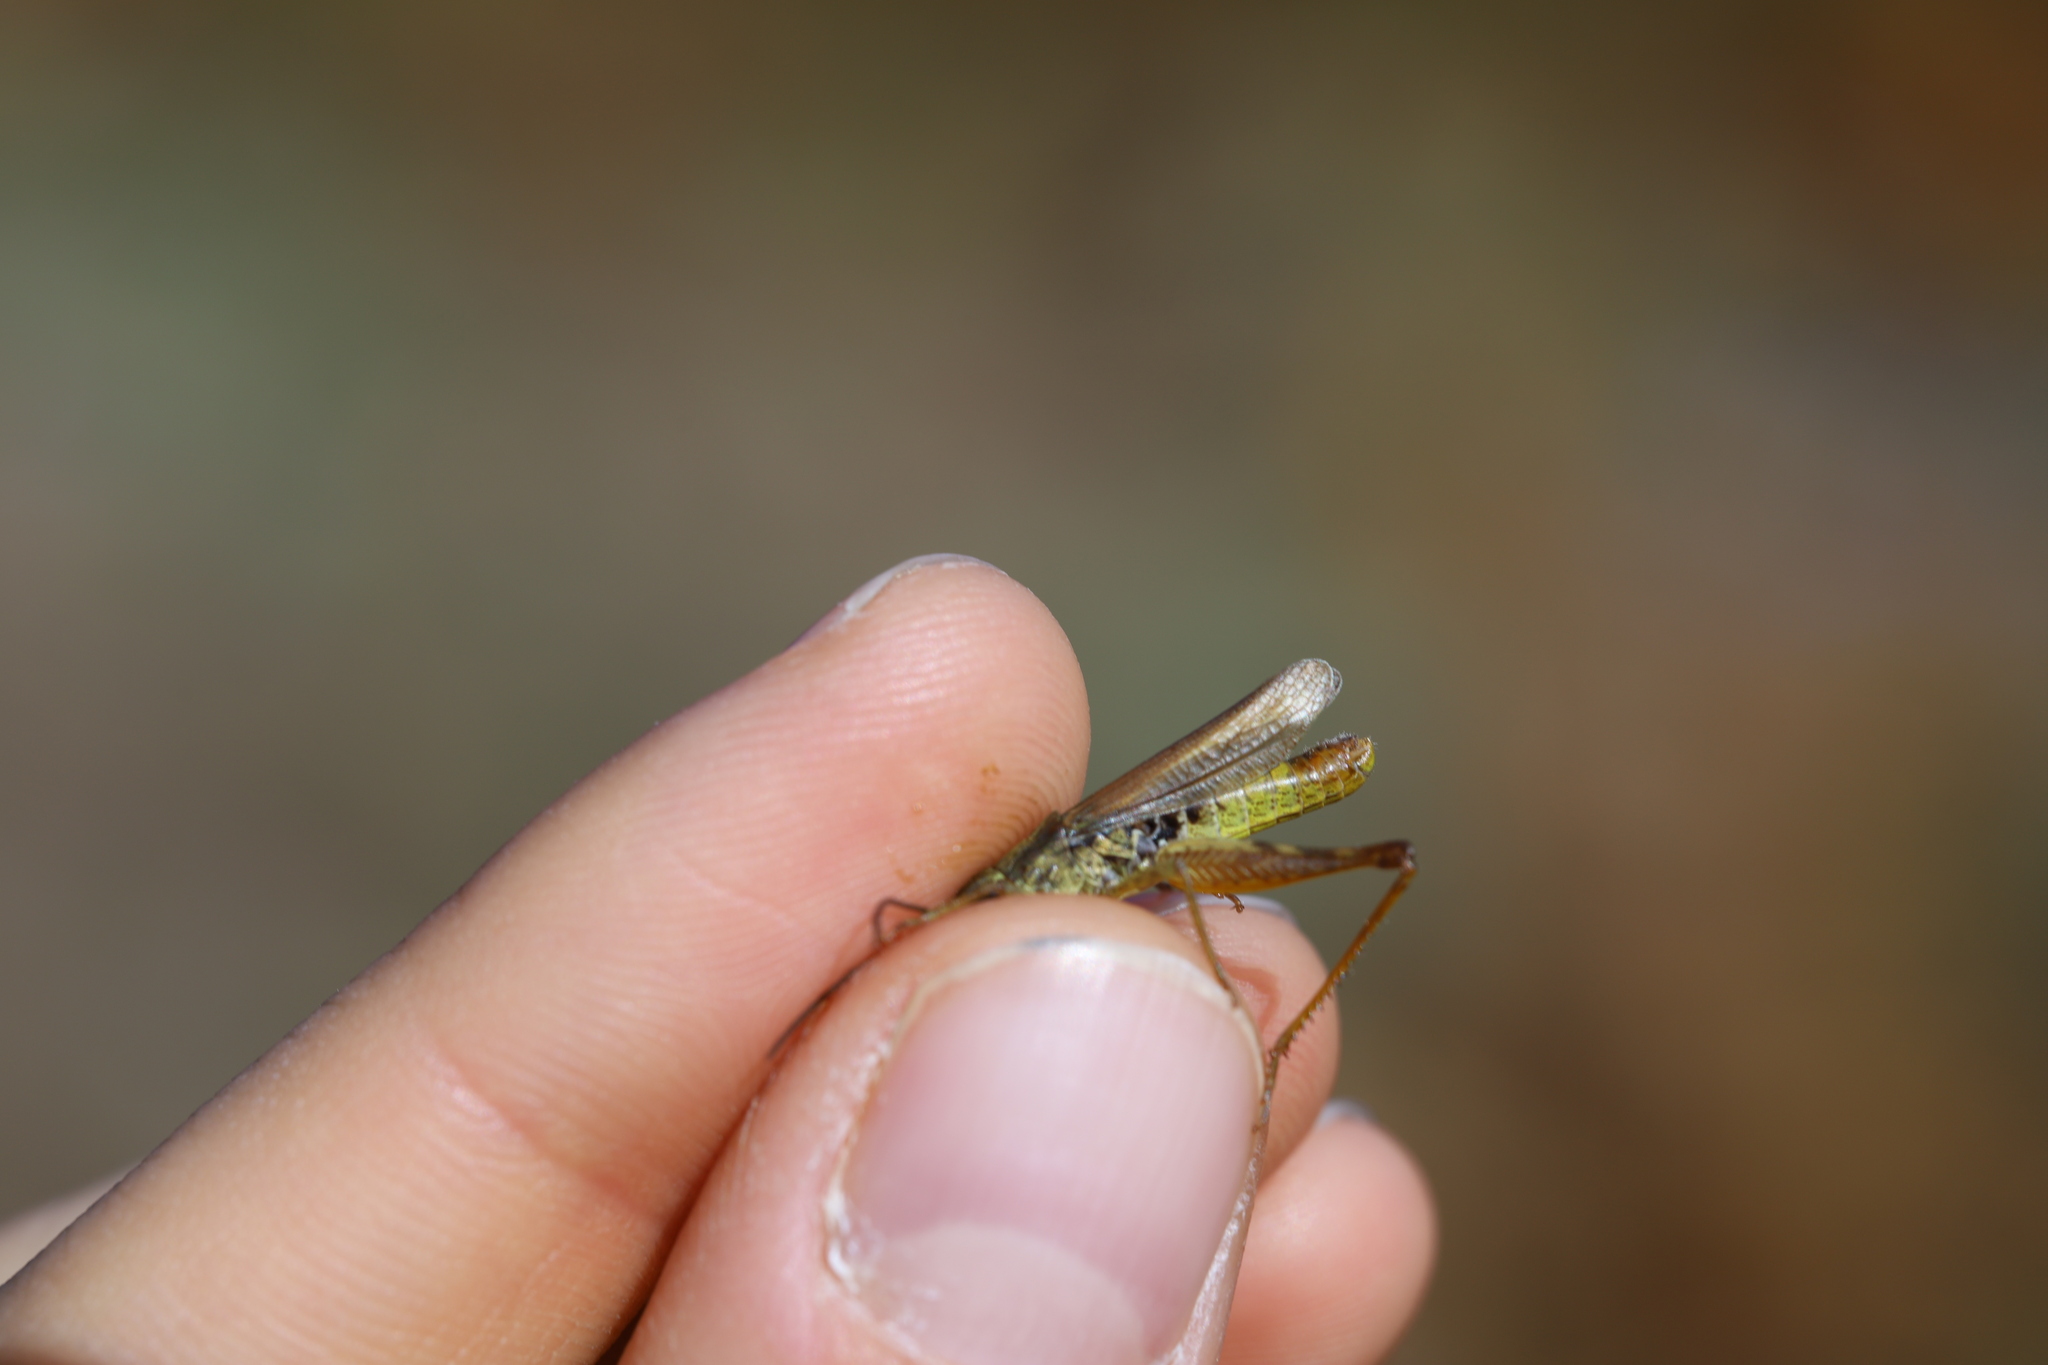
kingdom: Animalia
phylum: Arthropoda
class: Insecta
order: Orthoptera
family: Acrididae
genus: Chorthippus
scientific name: Chorthippus apricarius
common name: Upland field grasshopper
